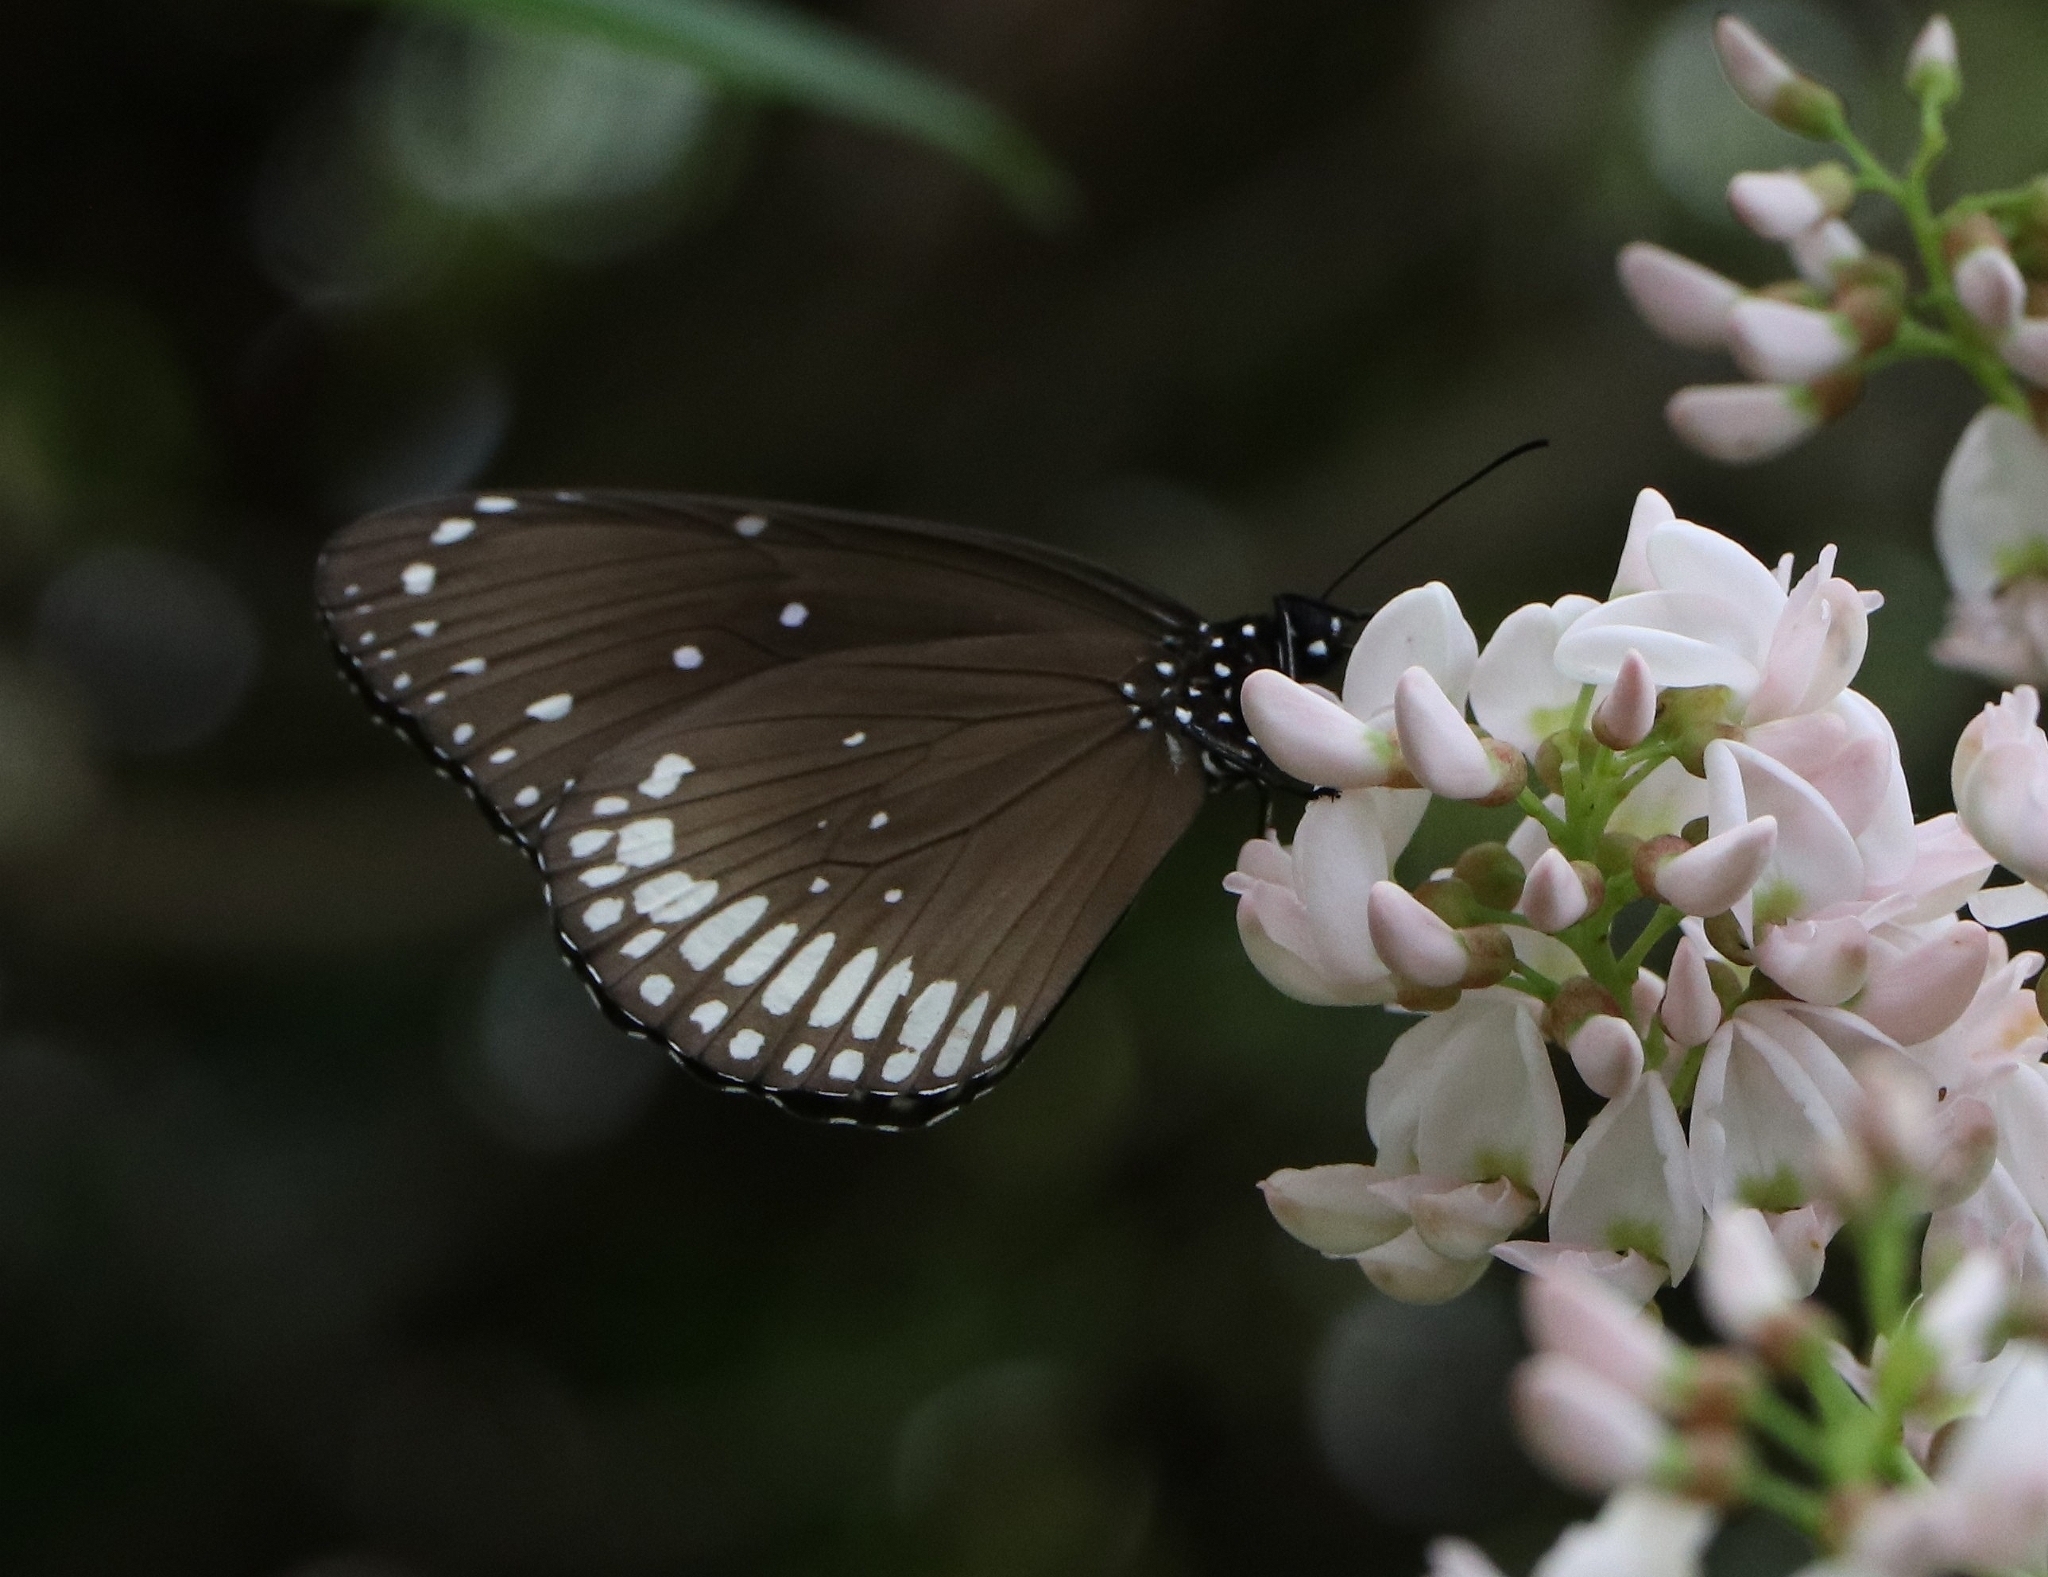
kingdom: Animalia
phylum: Arthropoda
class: Insecta
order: Lepidoptera
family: Nymphalidae
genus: Euploea
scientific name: Euploea core
